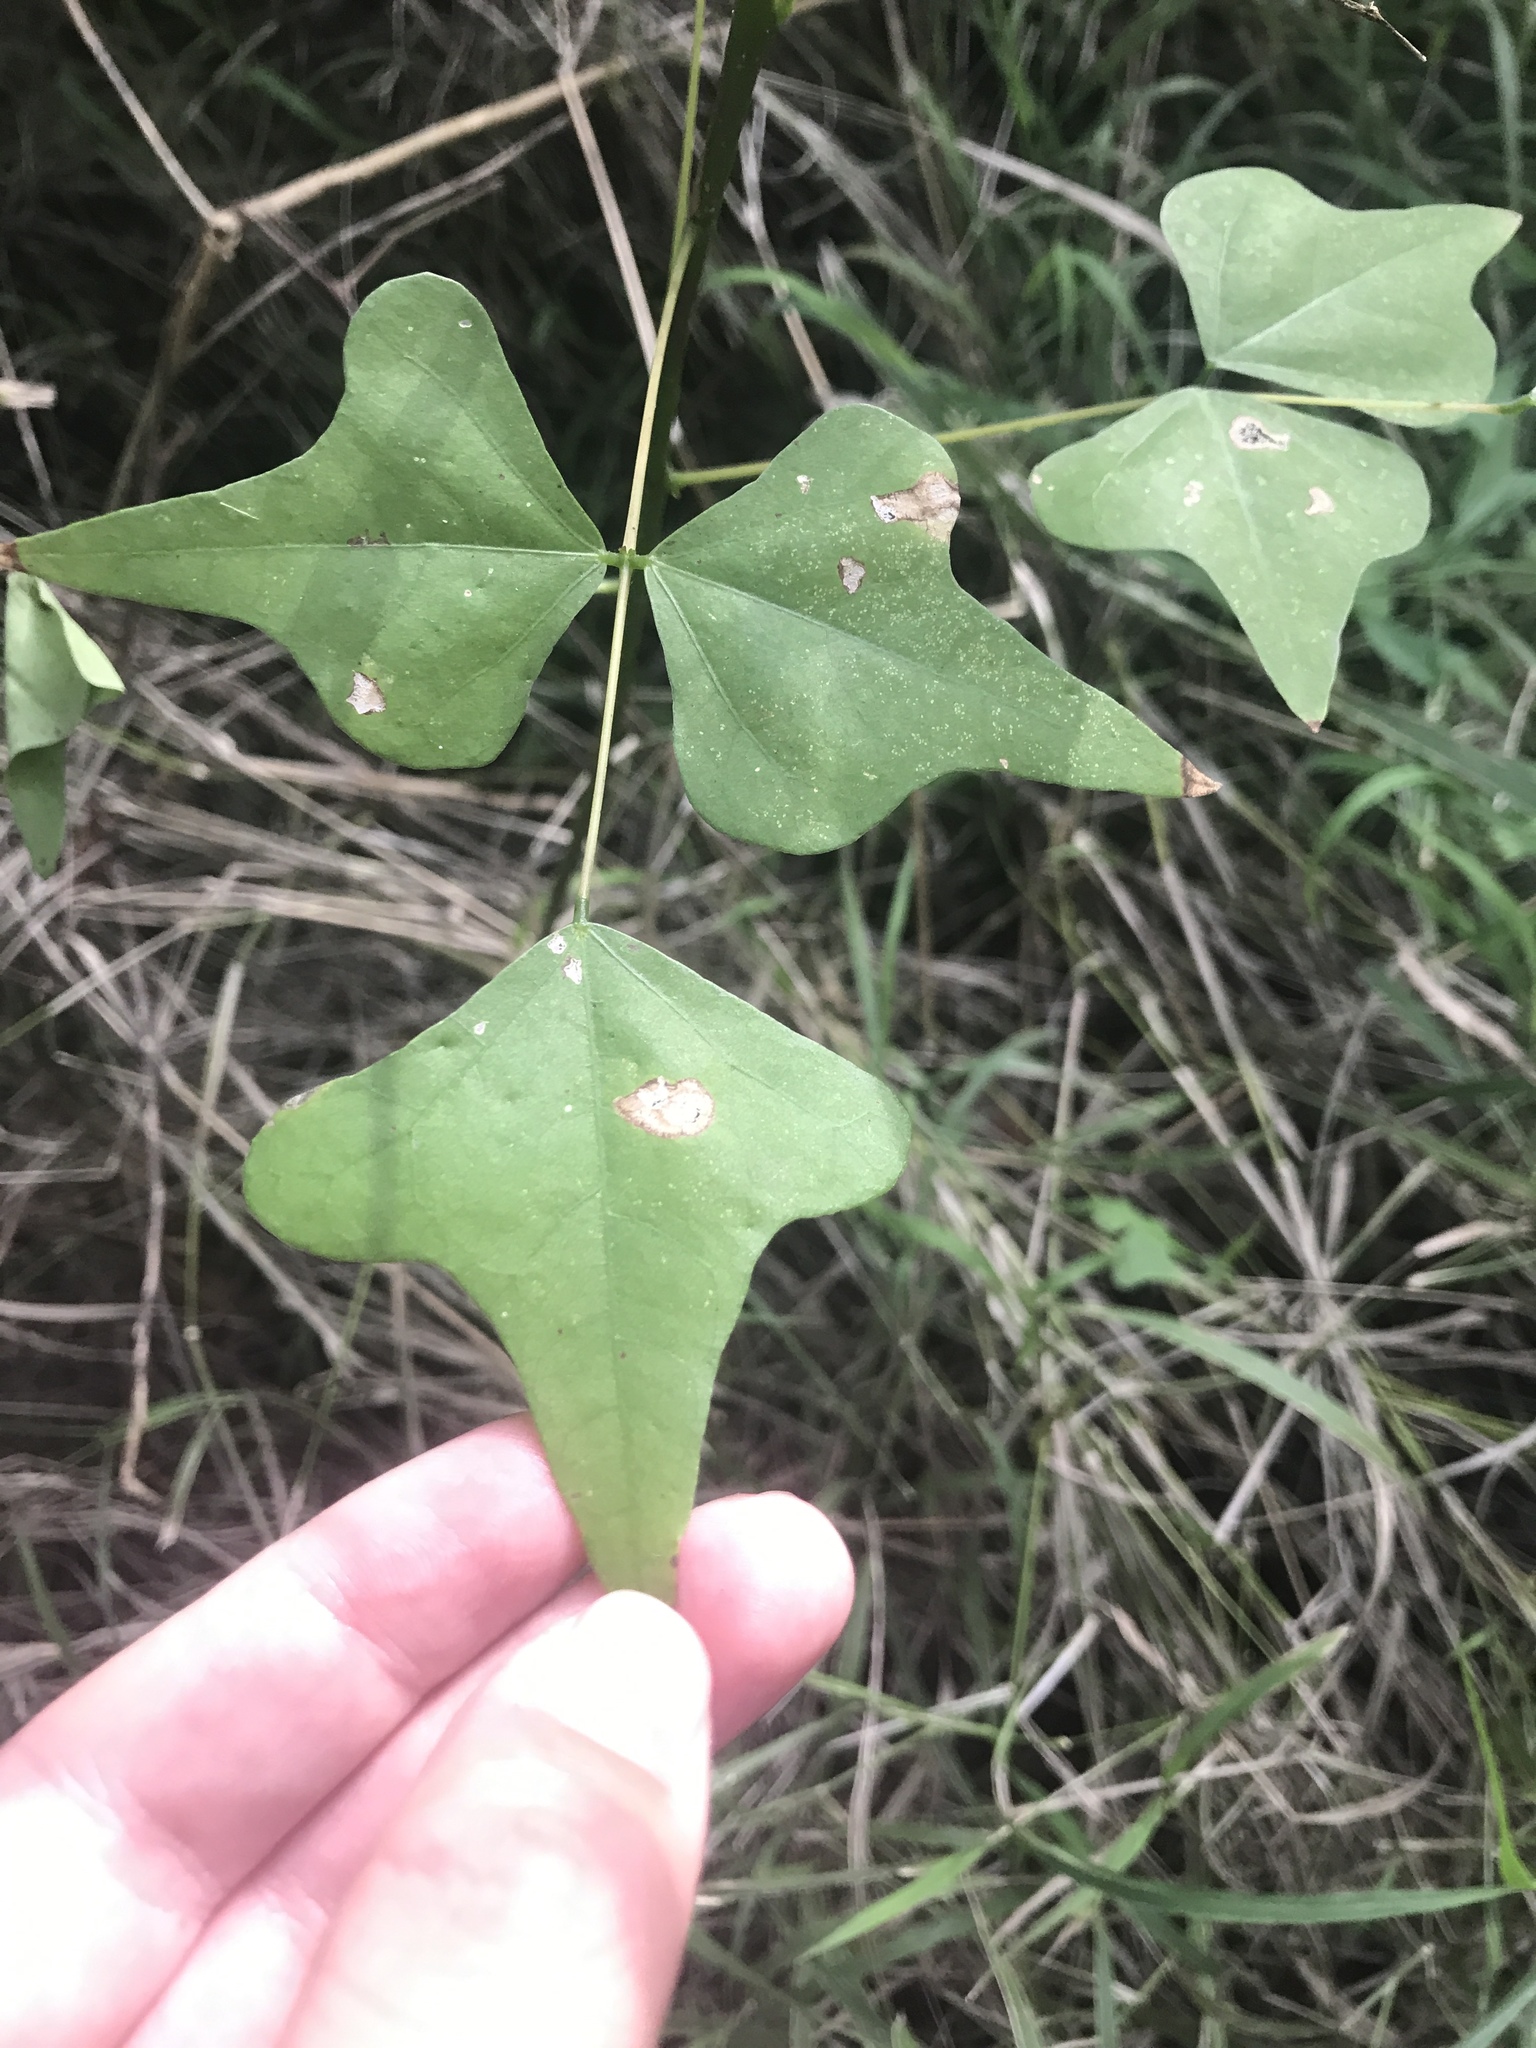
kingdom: Plantae
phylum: Tracheophyta
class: Magnoliopsida
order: Fabales
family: Fabaceae
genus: Erythrina
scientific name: Erythrina herbacea
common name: Coral-bean
